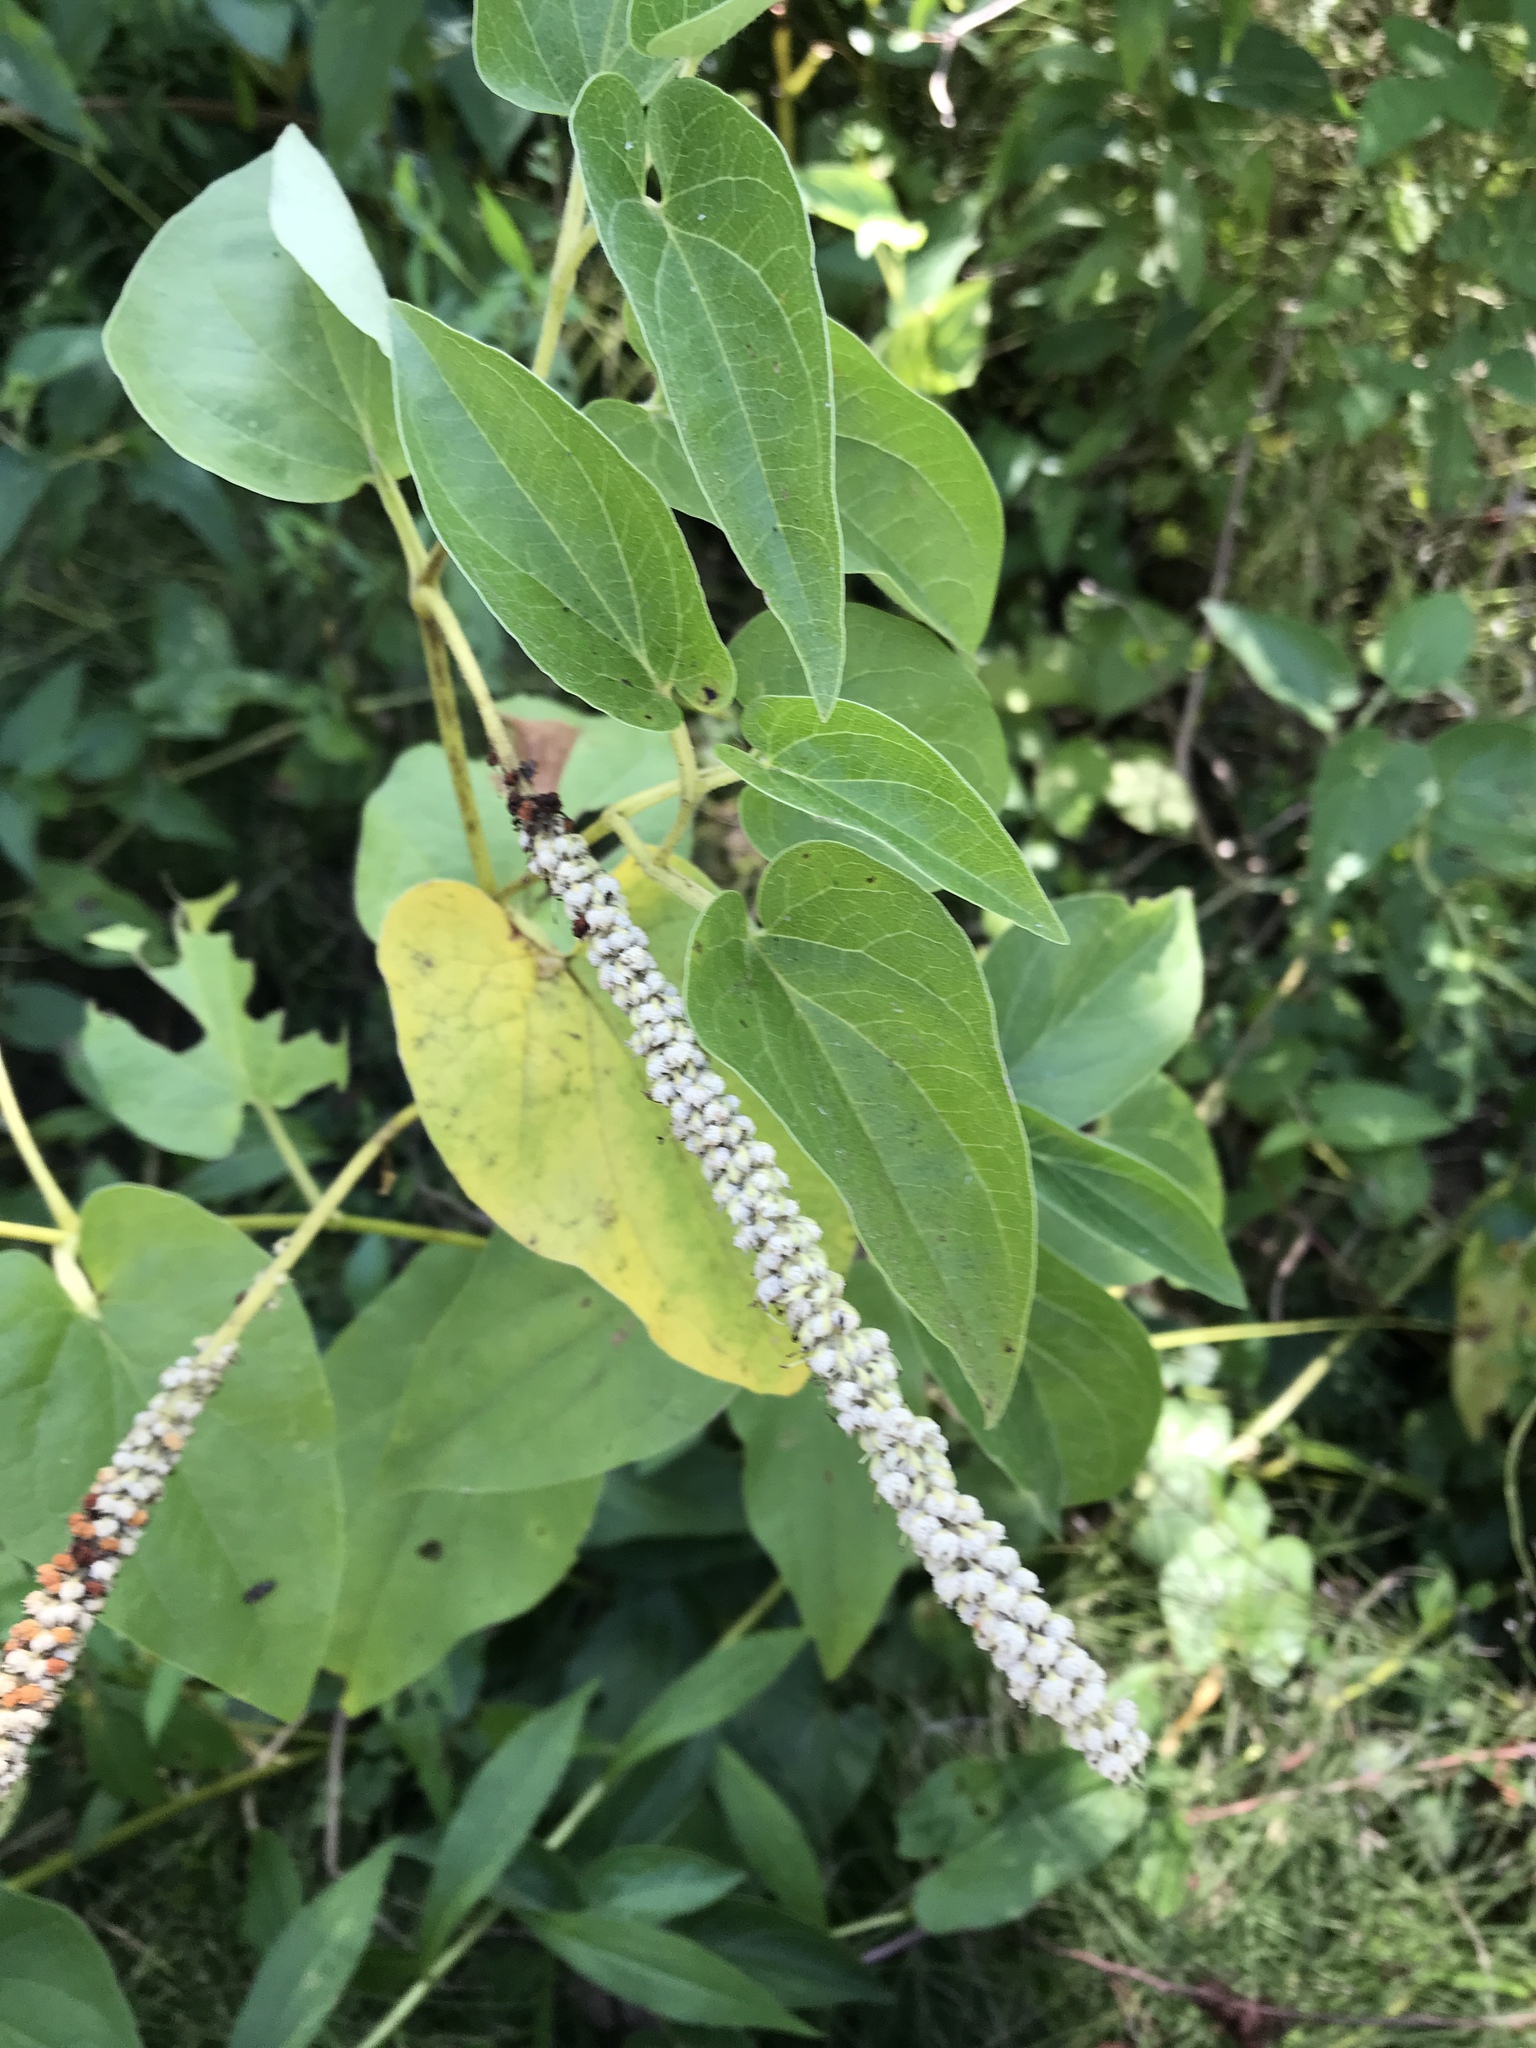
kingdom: Plantae
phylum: Tracheophyta
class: Magnoliopsida
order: Piperales
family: Saururaceae
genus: Saururus
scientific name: Saururus cernuus
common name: Lizard's-tail
